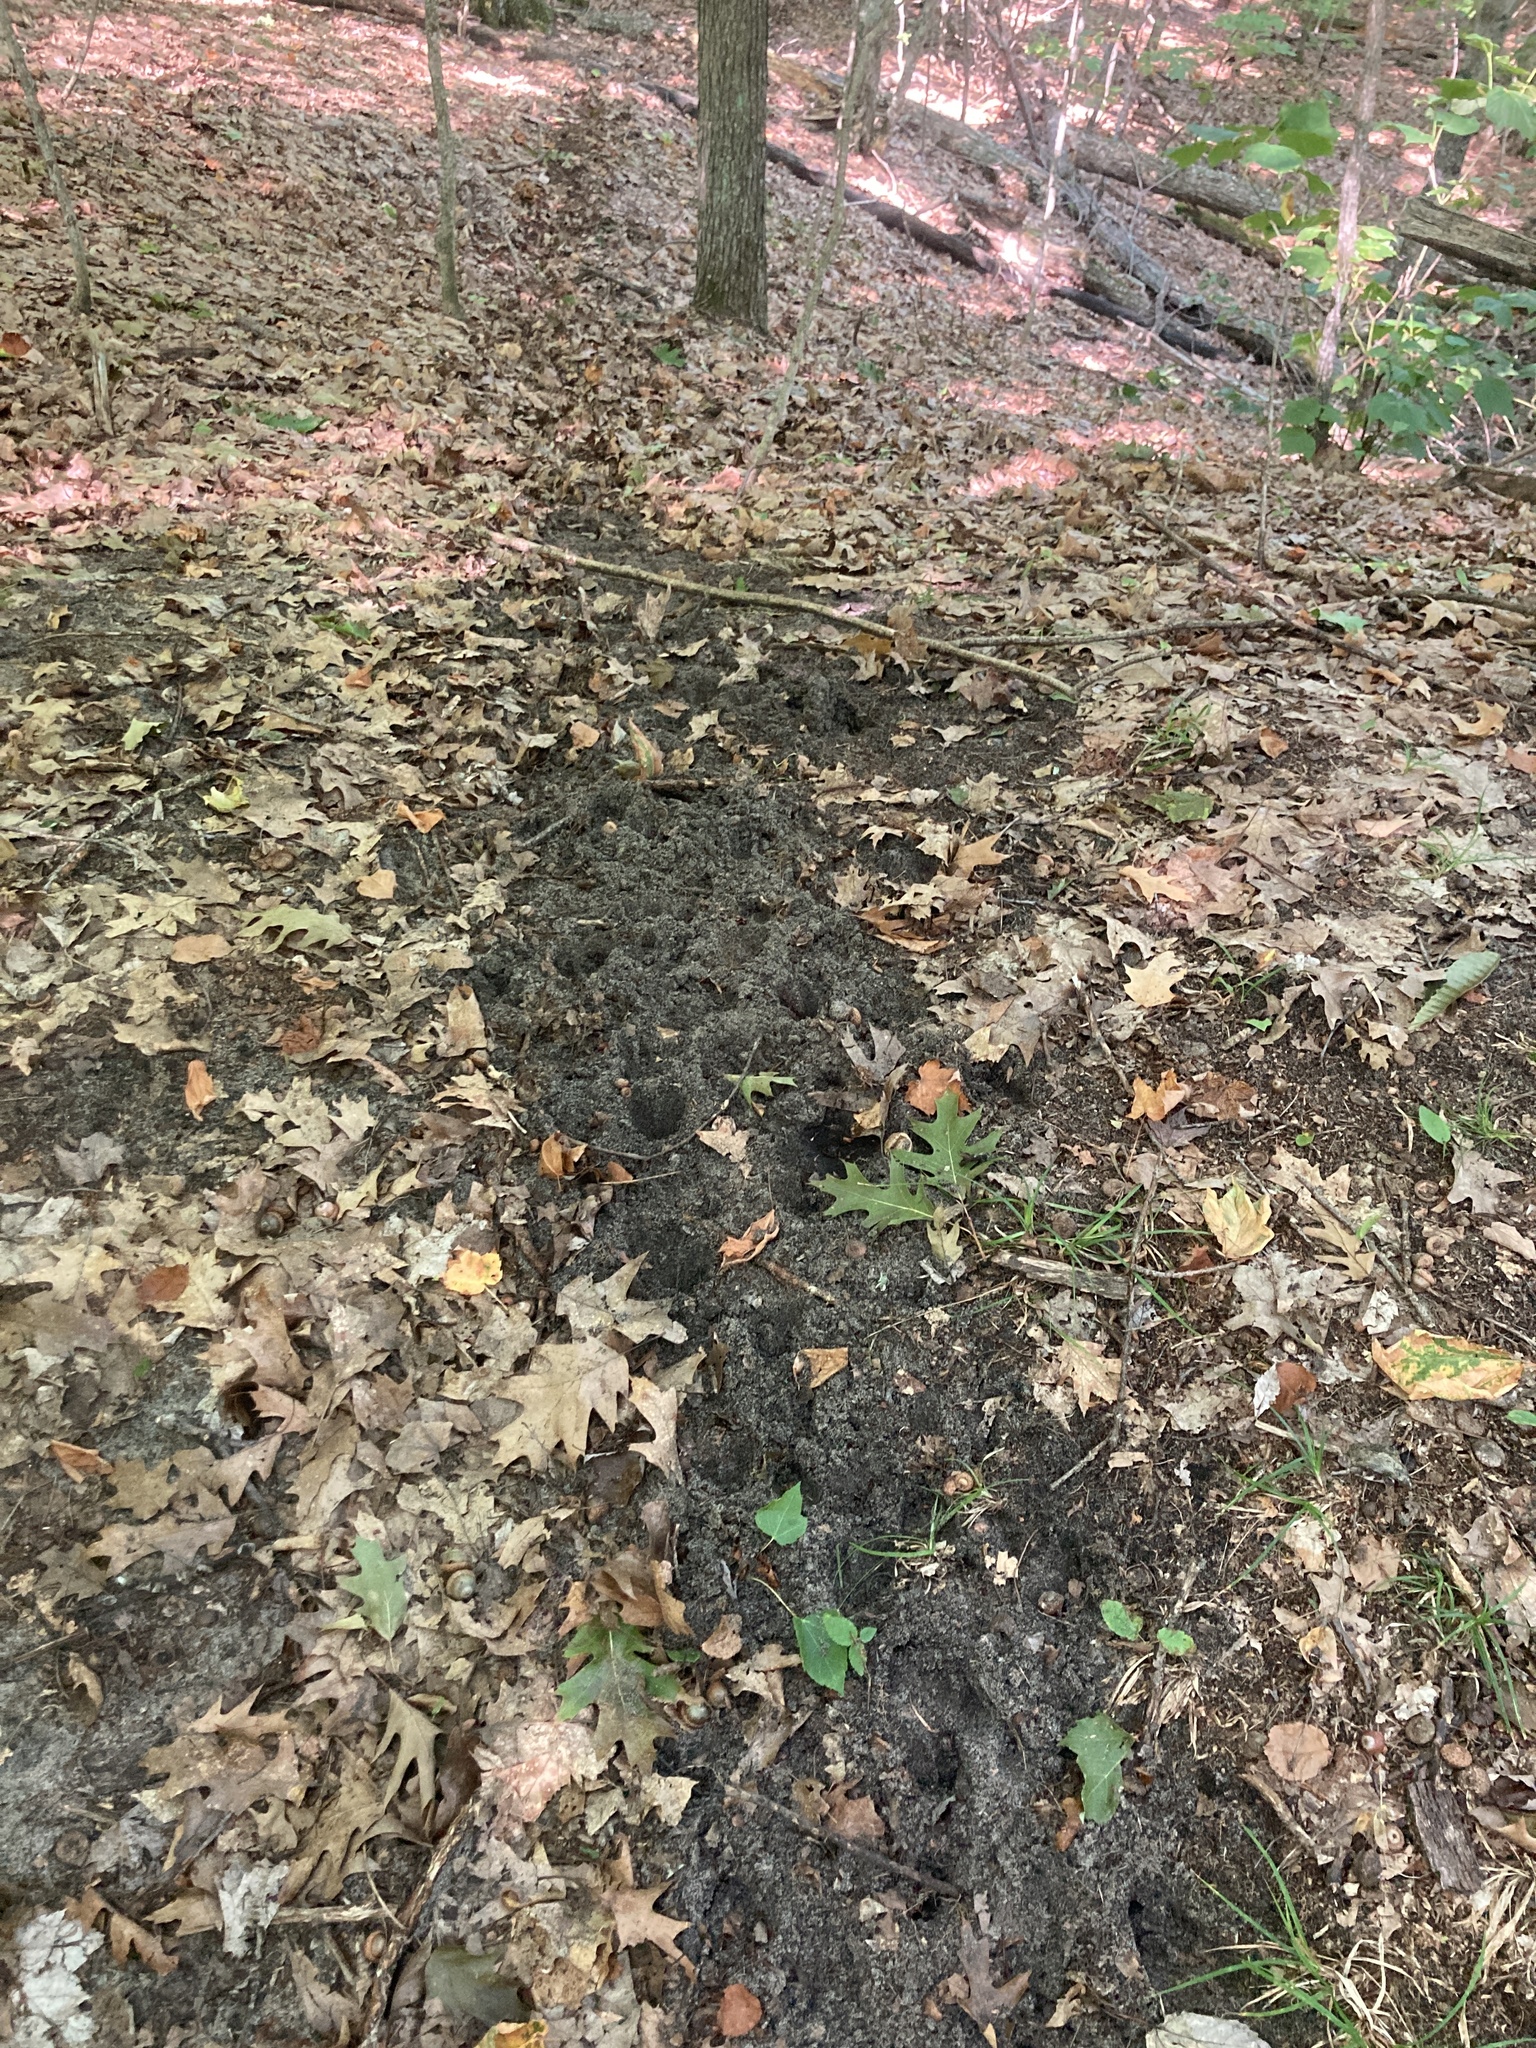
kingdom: Animalia
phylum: Chordata
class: Mammalia
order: Artiodactyla
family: Cervidae
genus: Odocoileus
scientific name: Odocoileus virginianus
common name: White-tailed deer
